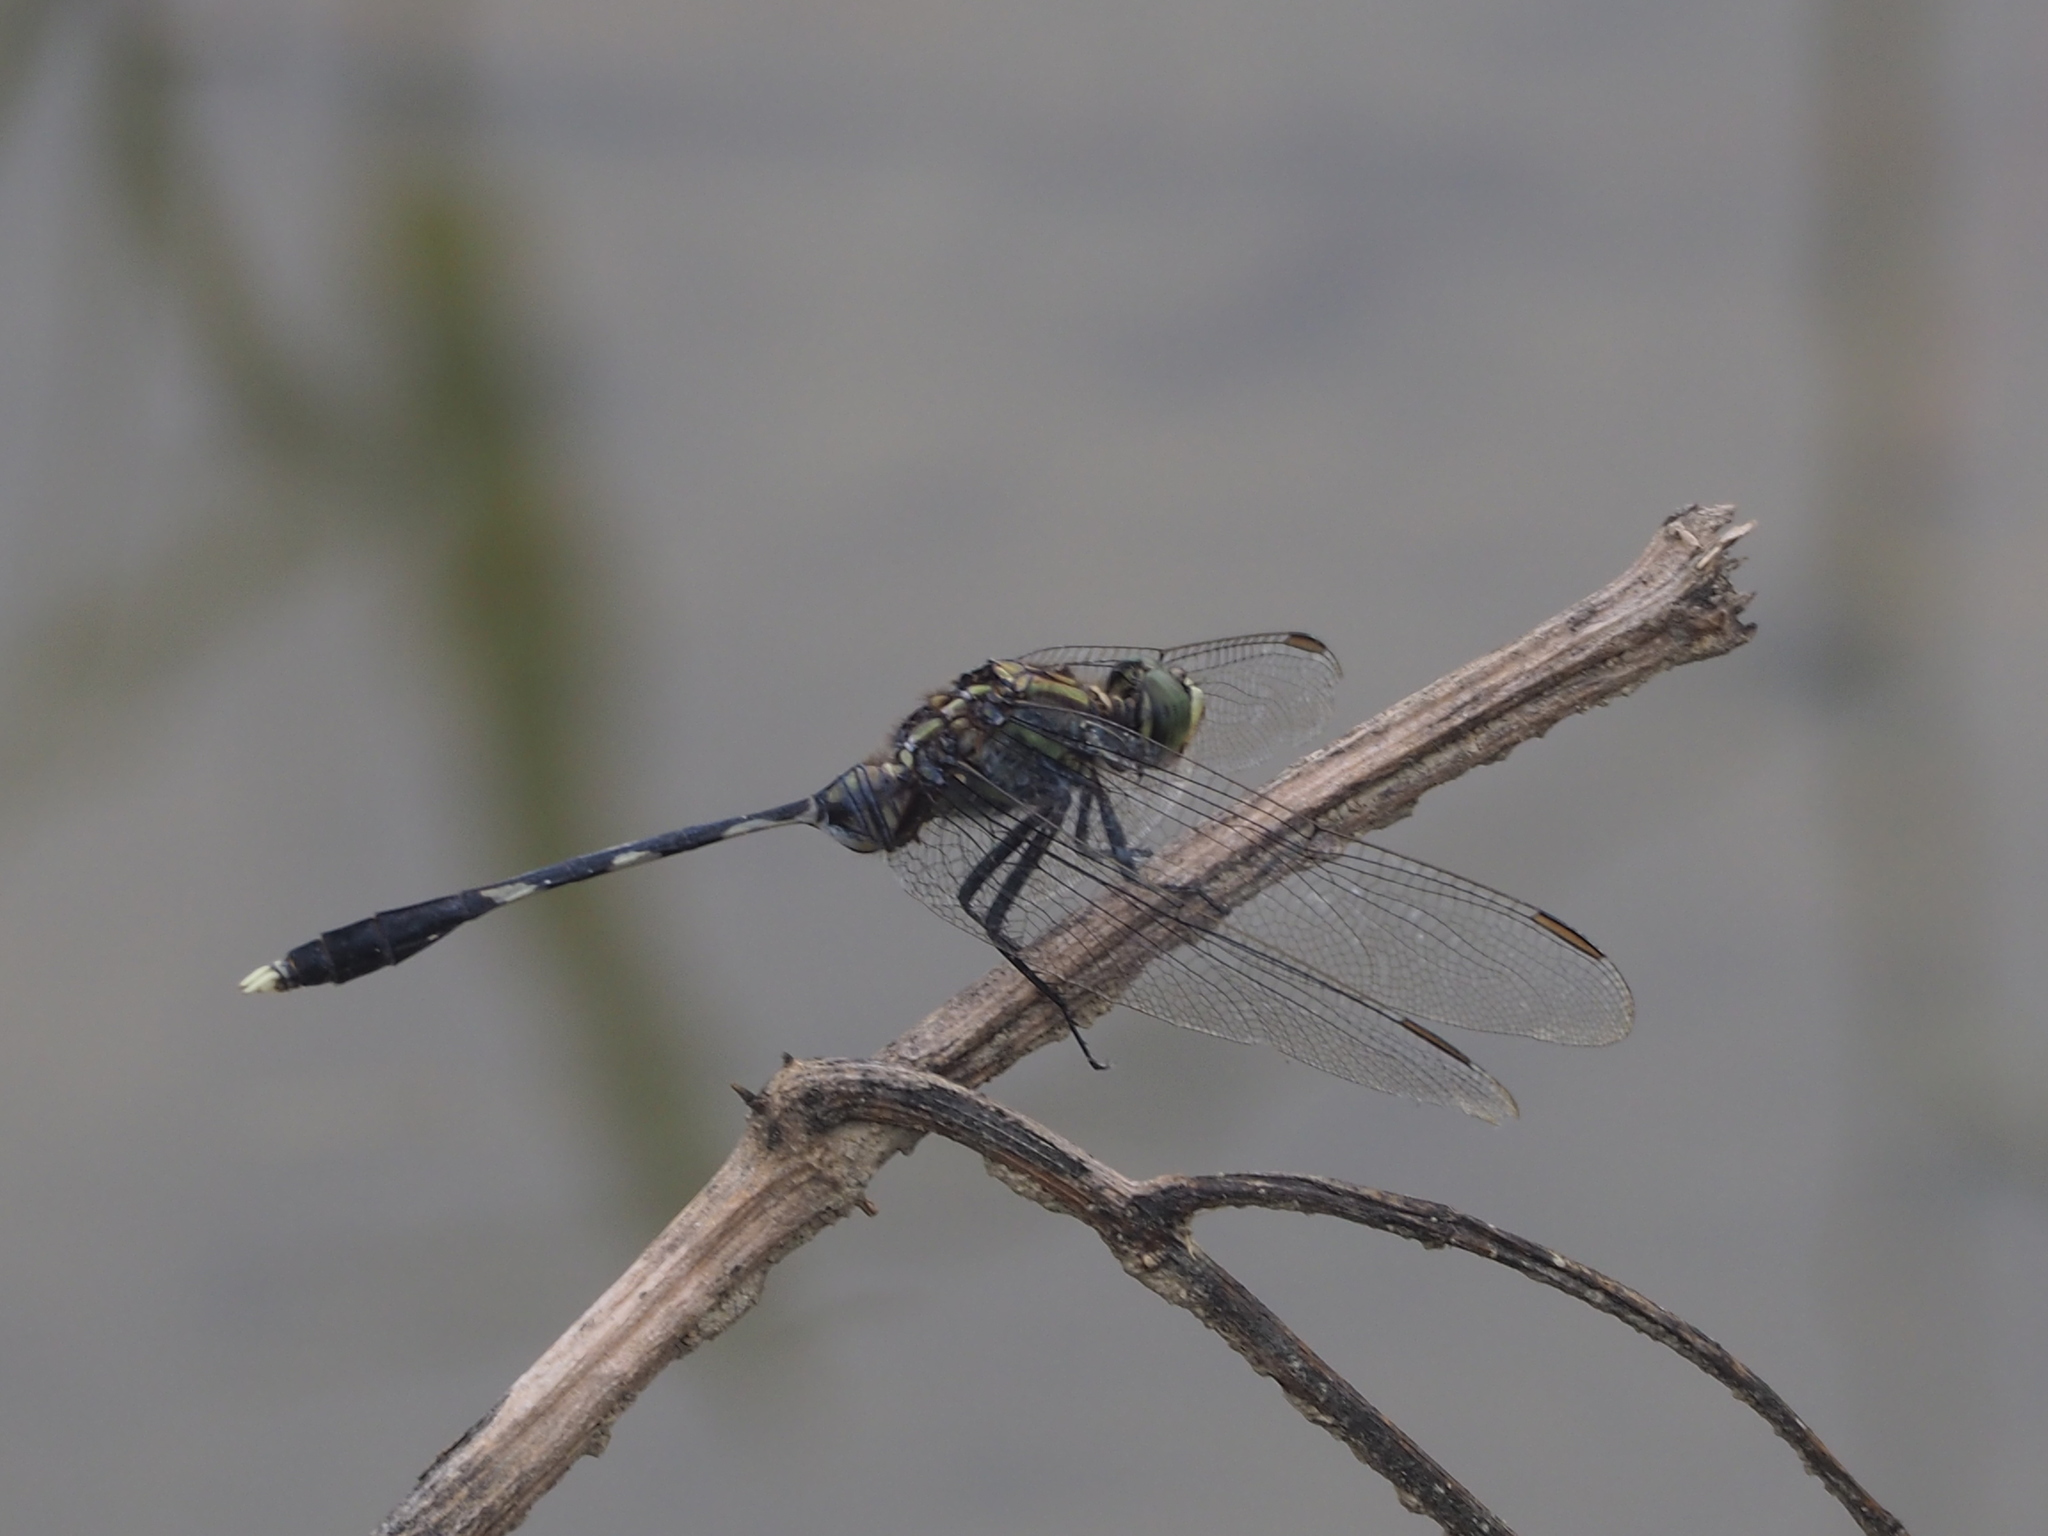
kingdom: Animalia
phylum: Arthropoda
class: Insecta
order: Odonata
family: Libellulidae
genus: Orthetrum
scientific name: Orthetrum sabina
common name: Slender skimmer
